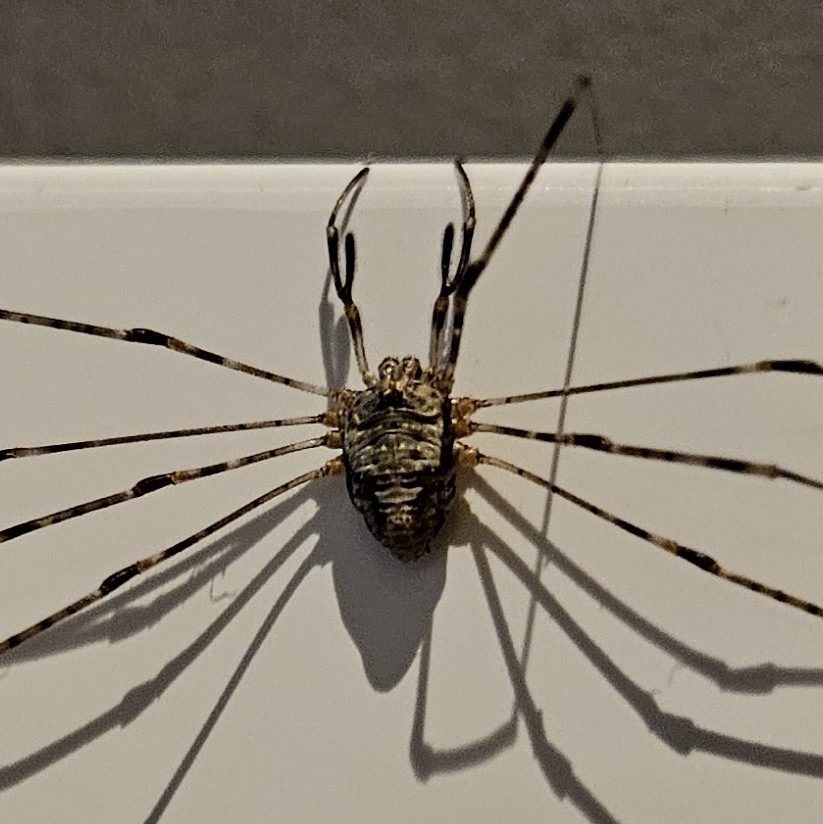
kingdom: Animalia
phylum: Arthropoda
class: Arachnida
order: Opiliones
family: Phalangiidae
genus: Dicranopalpus
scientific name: Dicranopalpus ramosus
